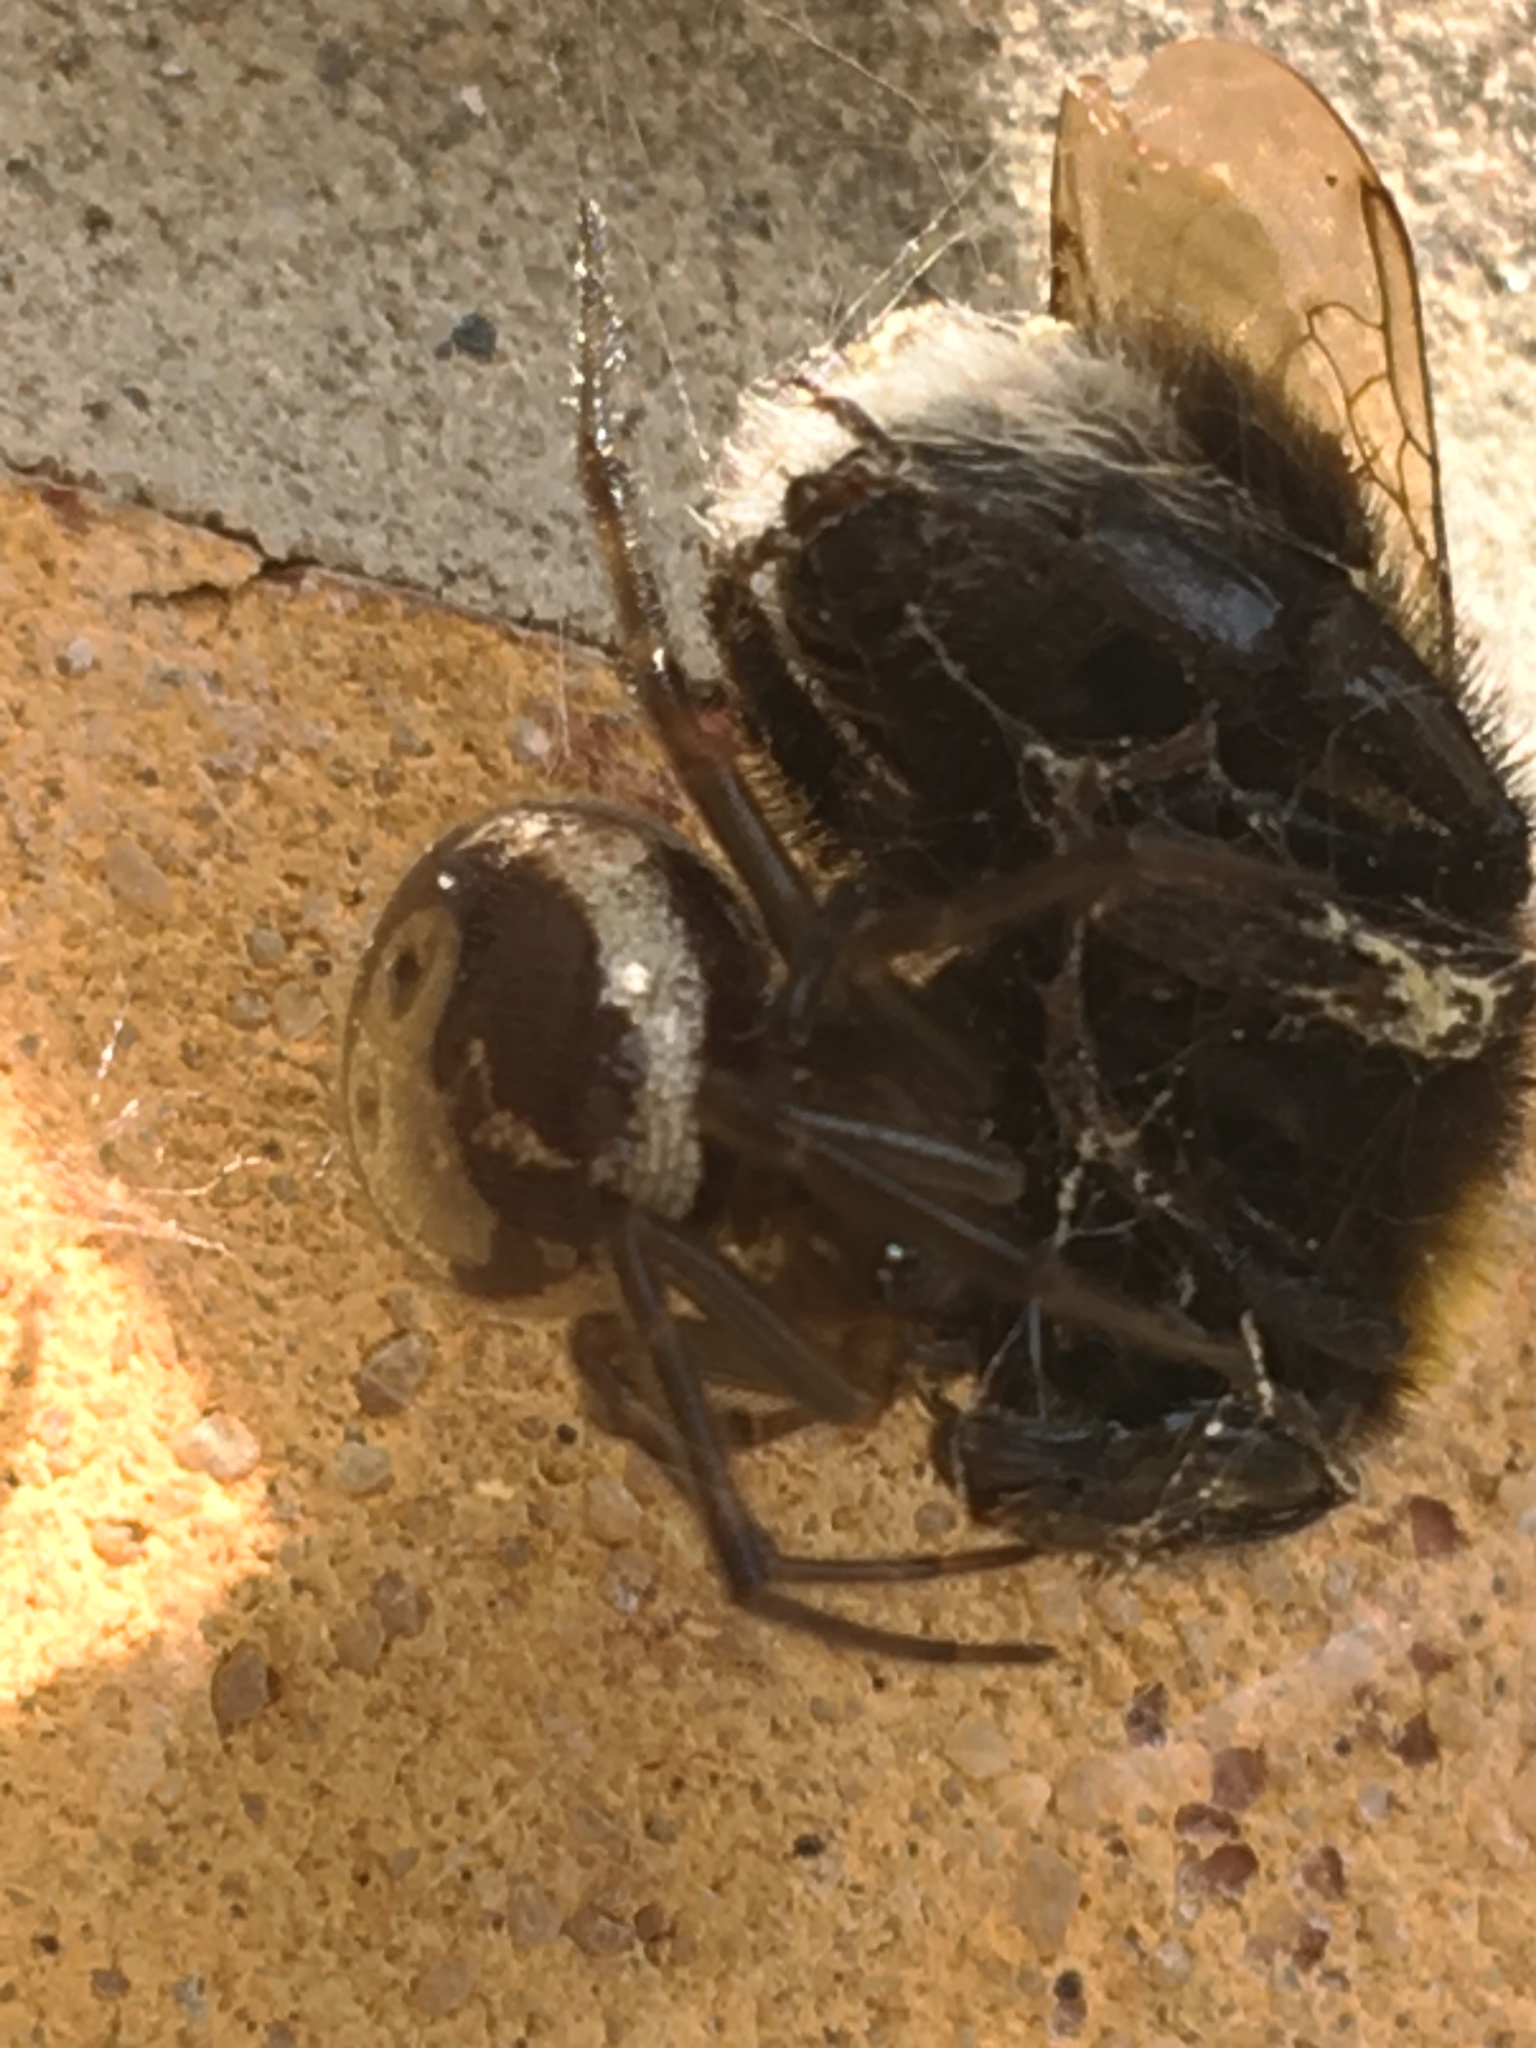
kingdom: Animalia
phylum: Arthropoda
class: Arachnida
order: Araneae
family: Theridiidae
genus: Steatoda
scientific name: Steatoda nobilis
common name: Cobweb weaver
